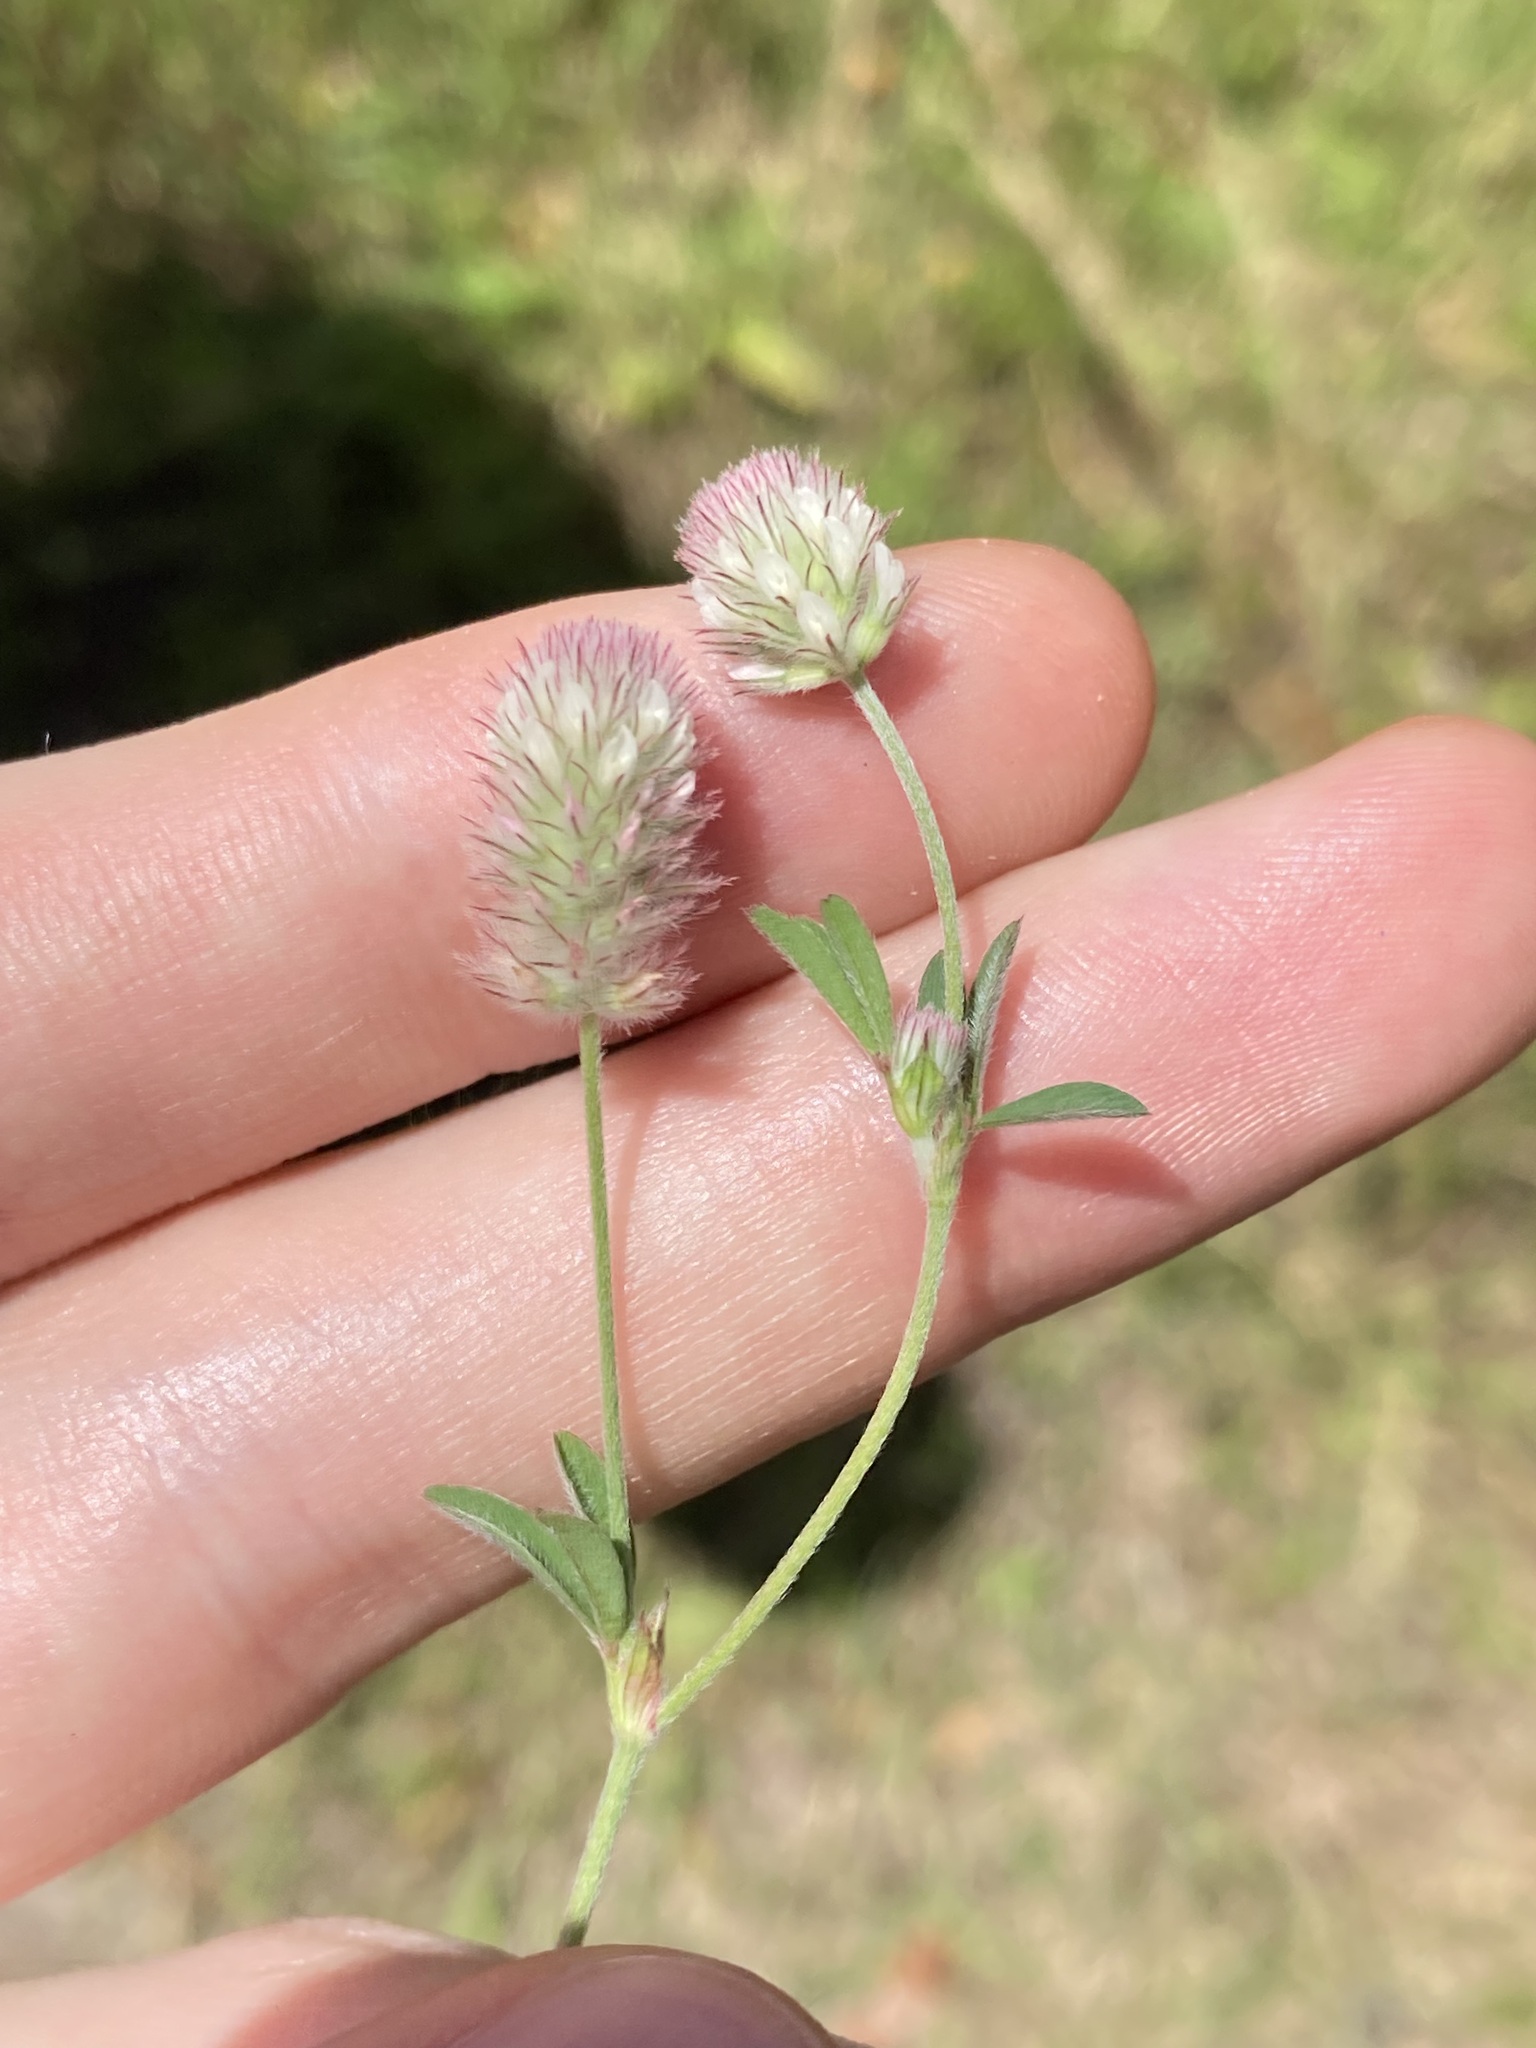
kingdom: Plantae
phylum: Tracheophyta
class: Magnoliopsida
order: Fabales
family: Fabaceae
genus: Trifolium
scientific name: Trifolium arvense
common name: Hare's-foot clover
